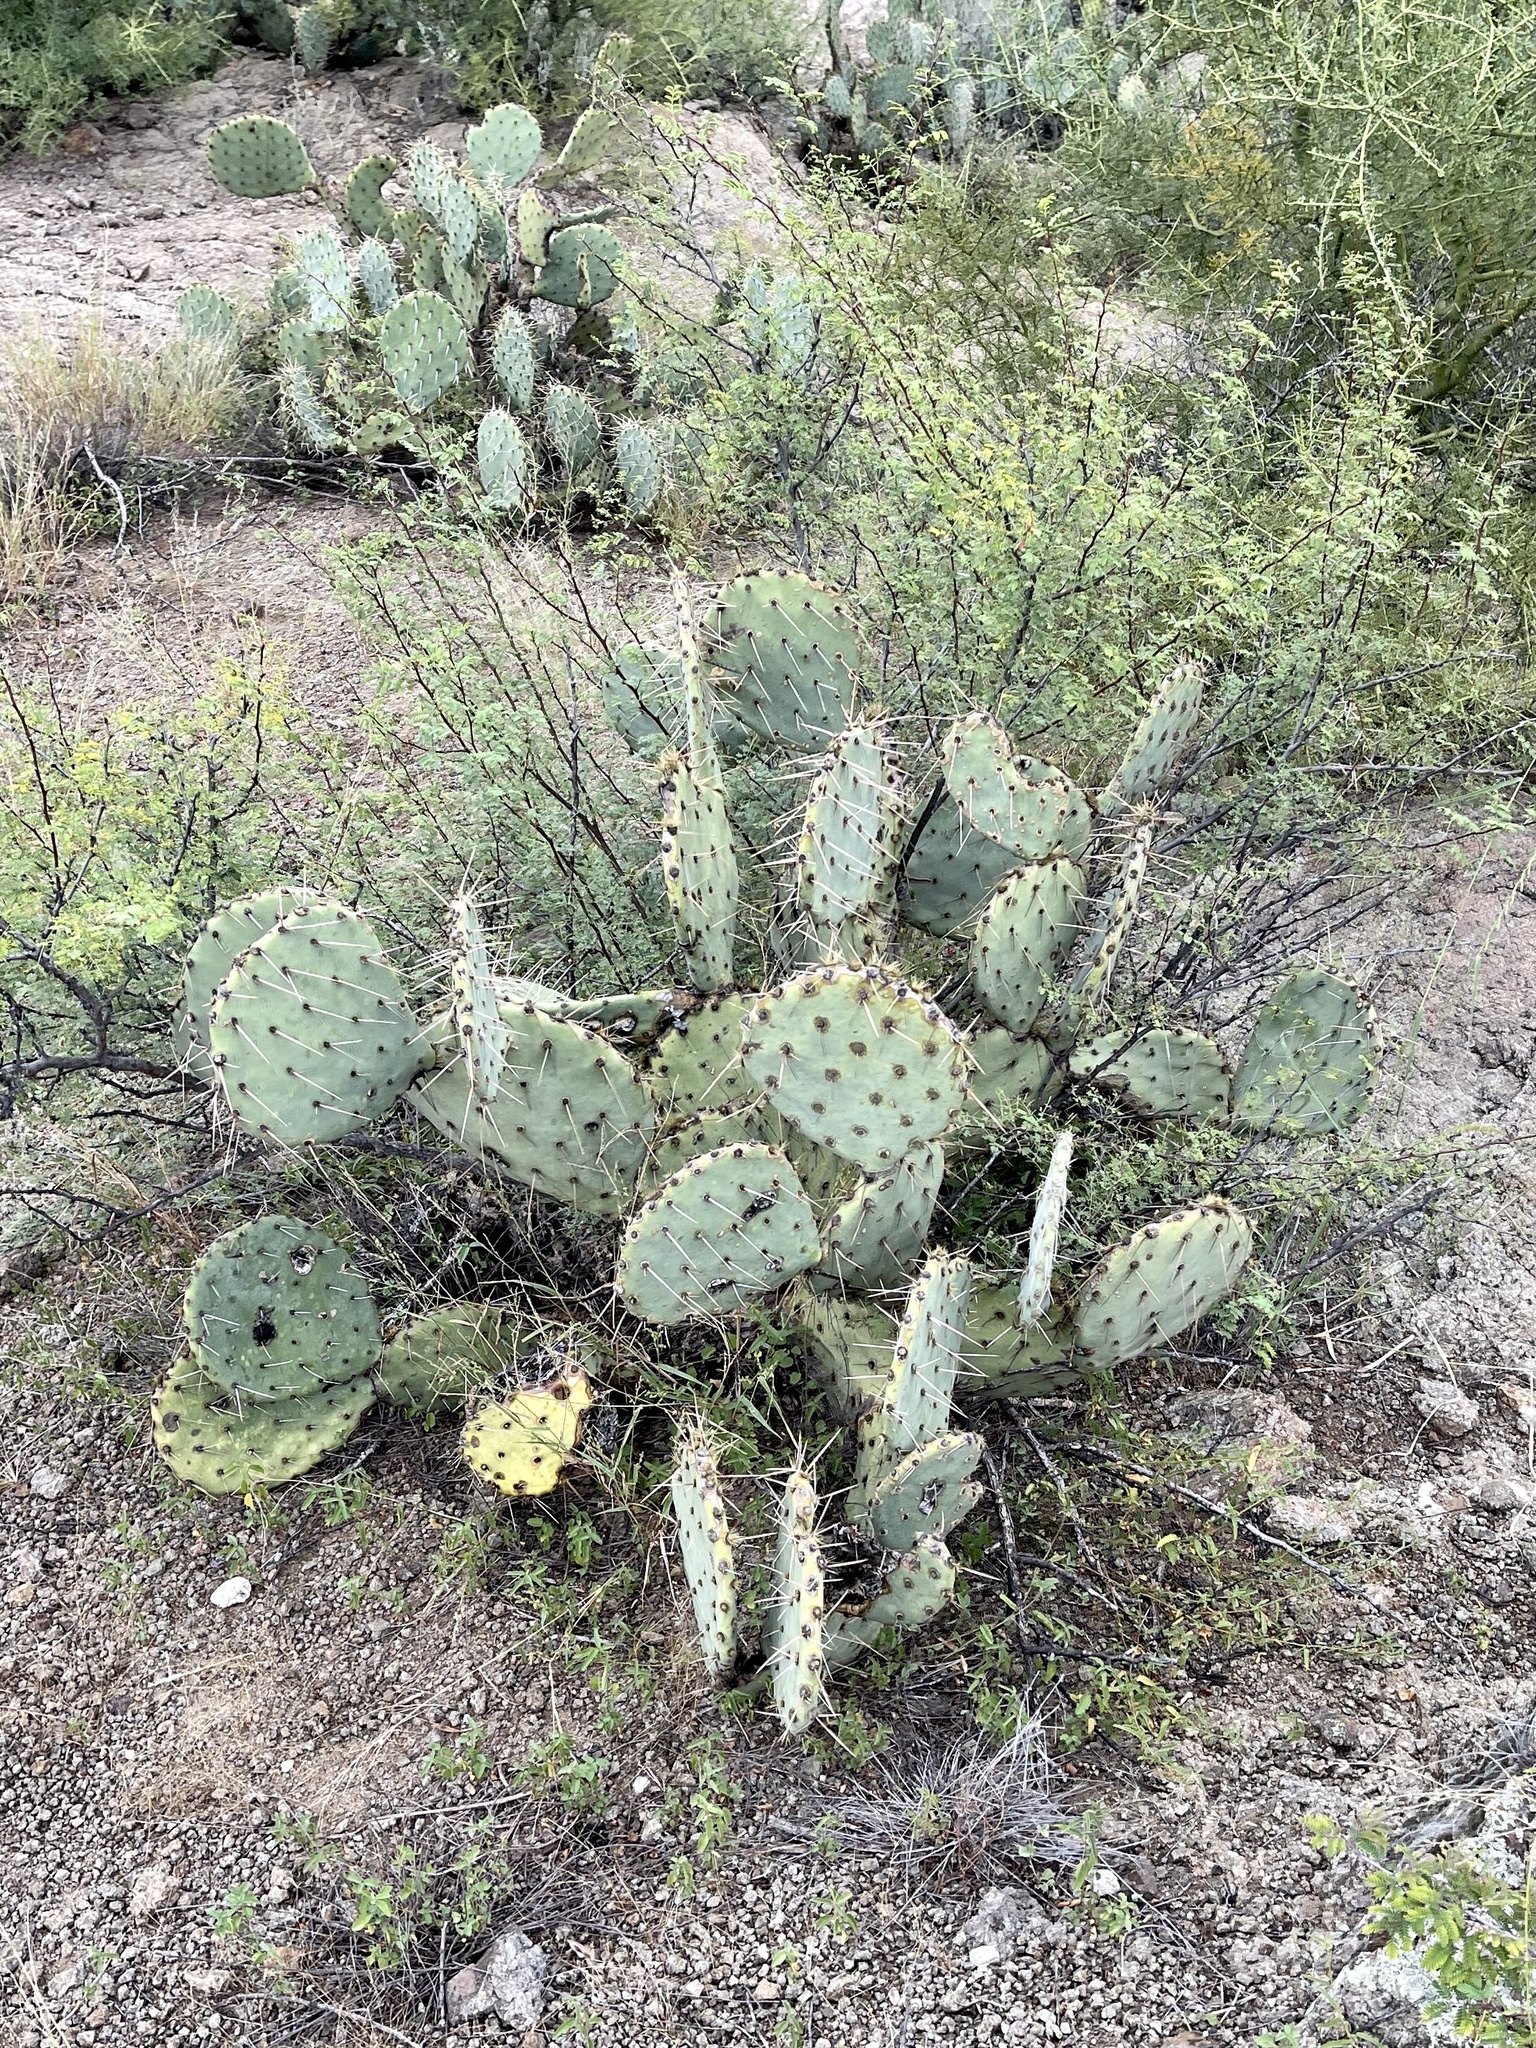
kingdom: Plantae
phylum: Tracheophyta
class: Magnoliopsida
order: Caryophyllales
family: Cactaceae
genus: Opuntia
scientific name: Opuntia engelmannii
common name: Cactus-apple
